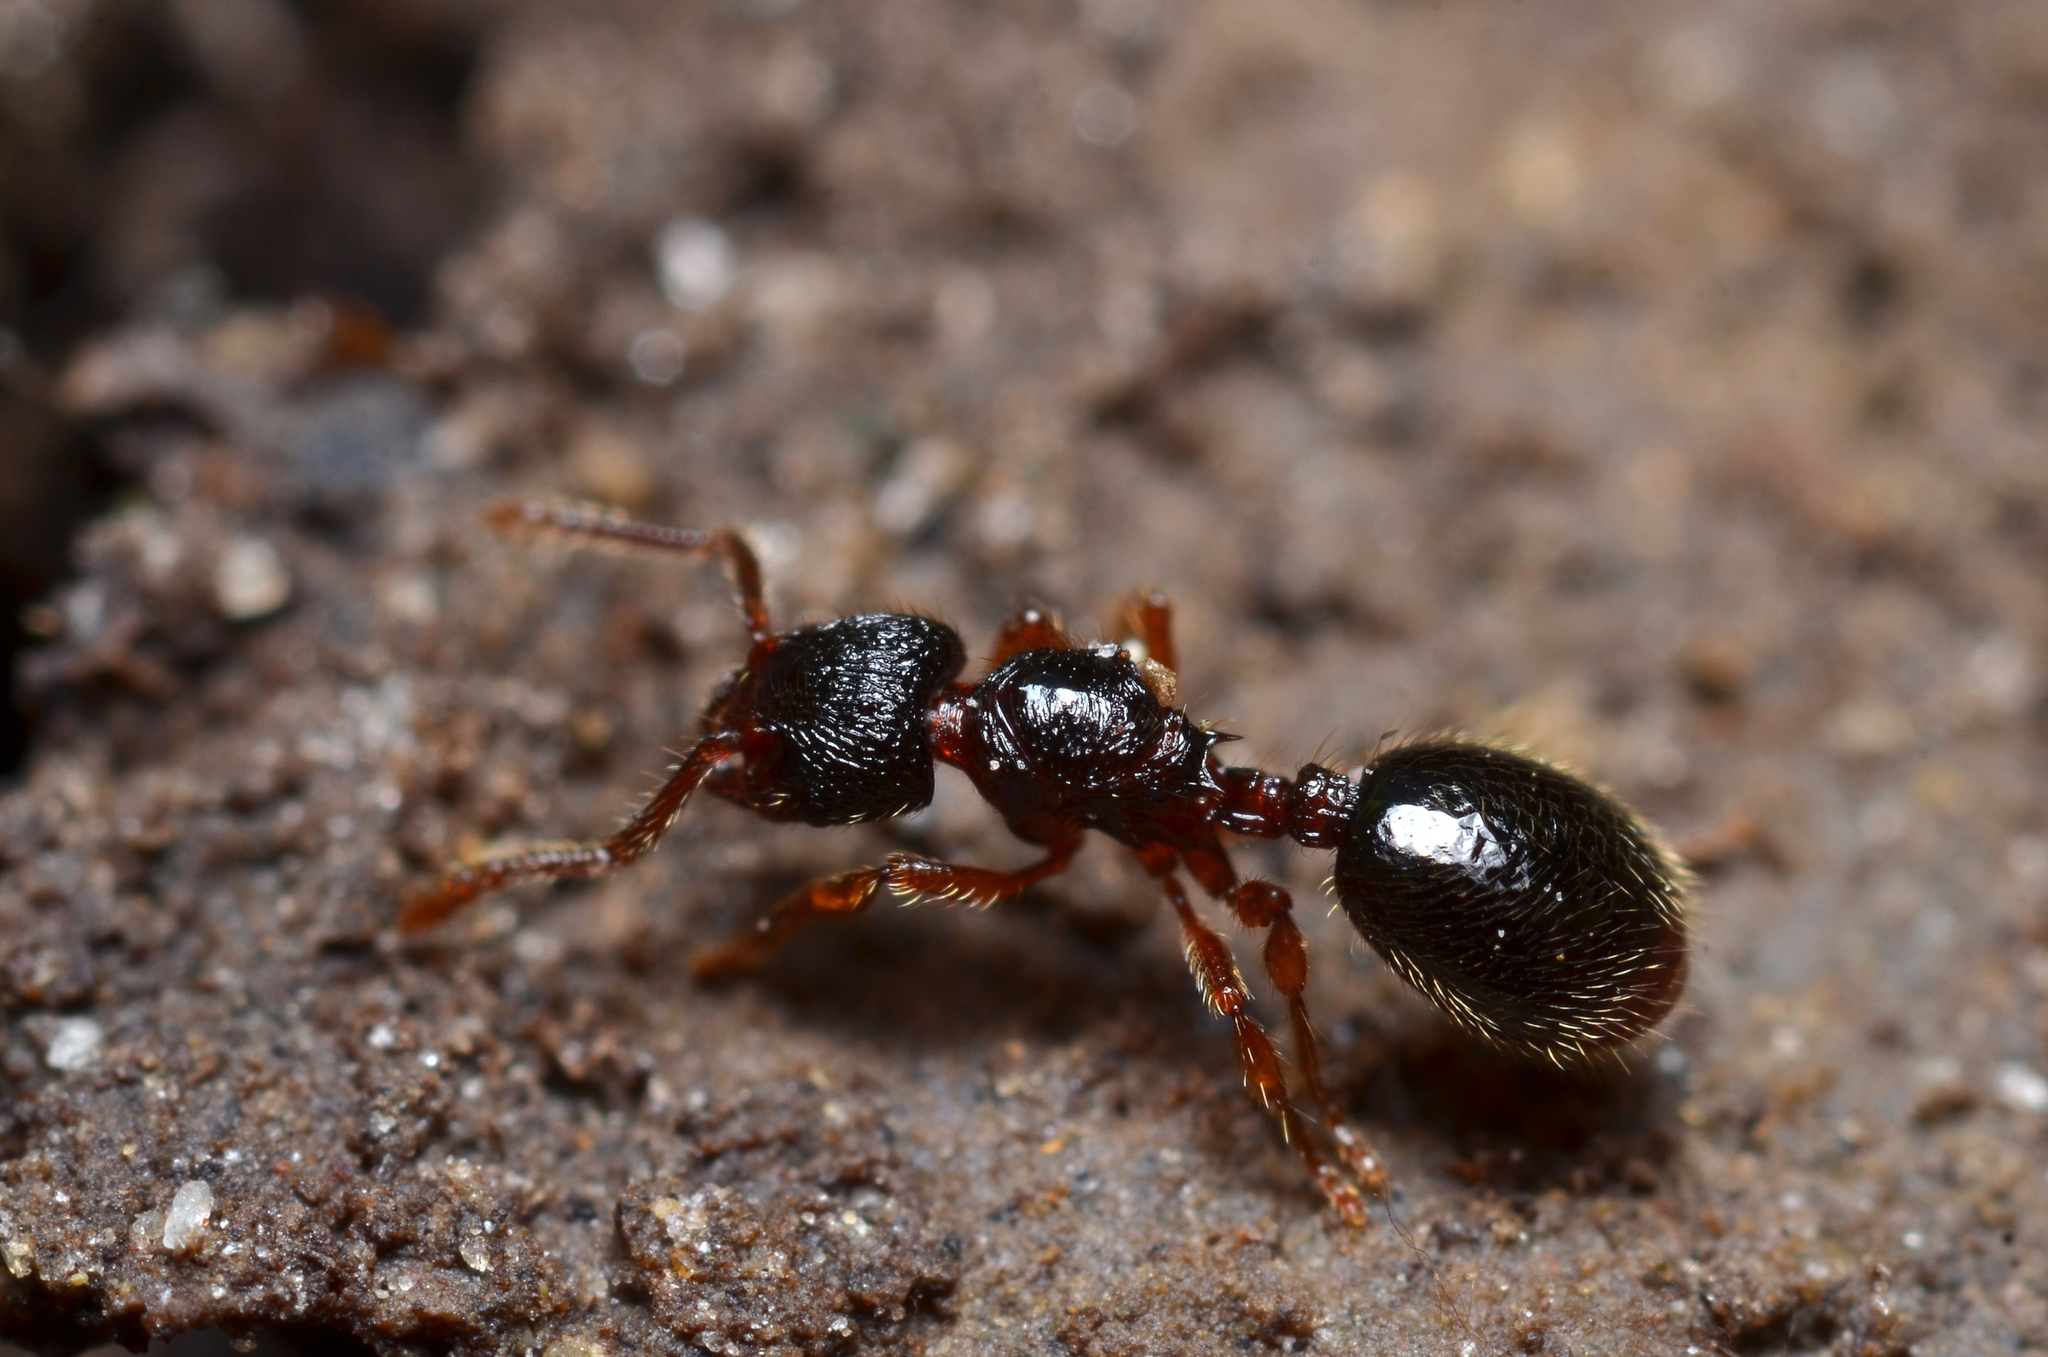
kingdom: Animalia
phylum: Arthropoda
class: Insecta
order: Hymenoptera
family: Formicidae
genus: Myrmecina
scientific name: Myrmecina graminicola
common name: Grass ant
